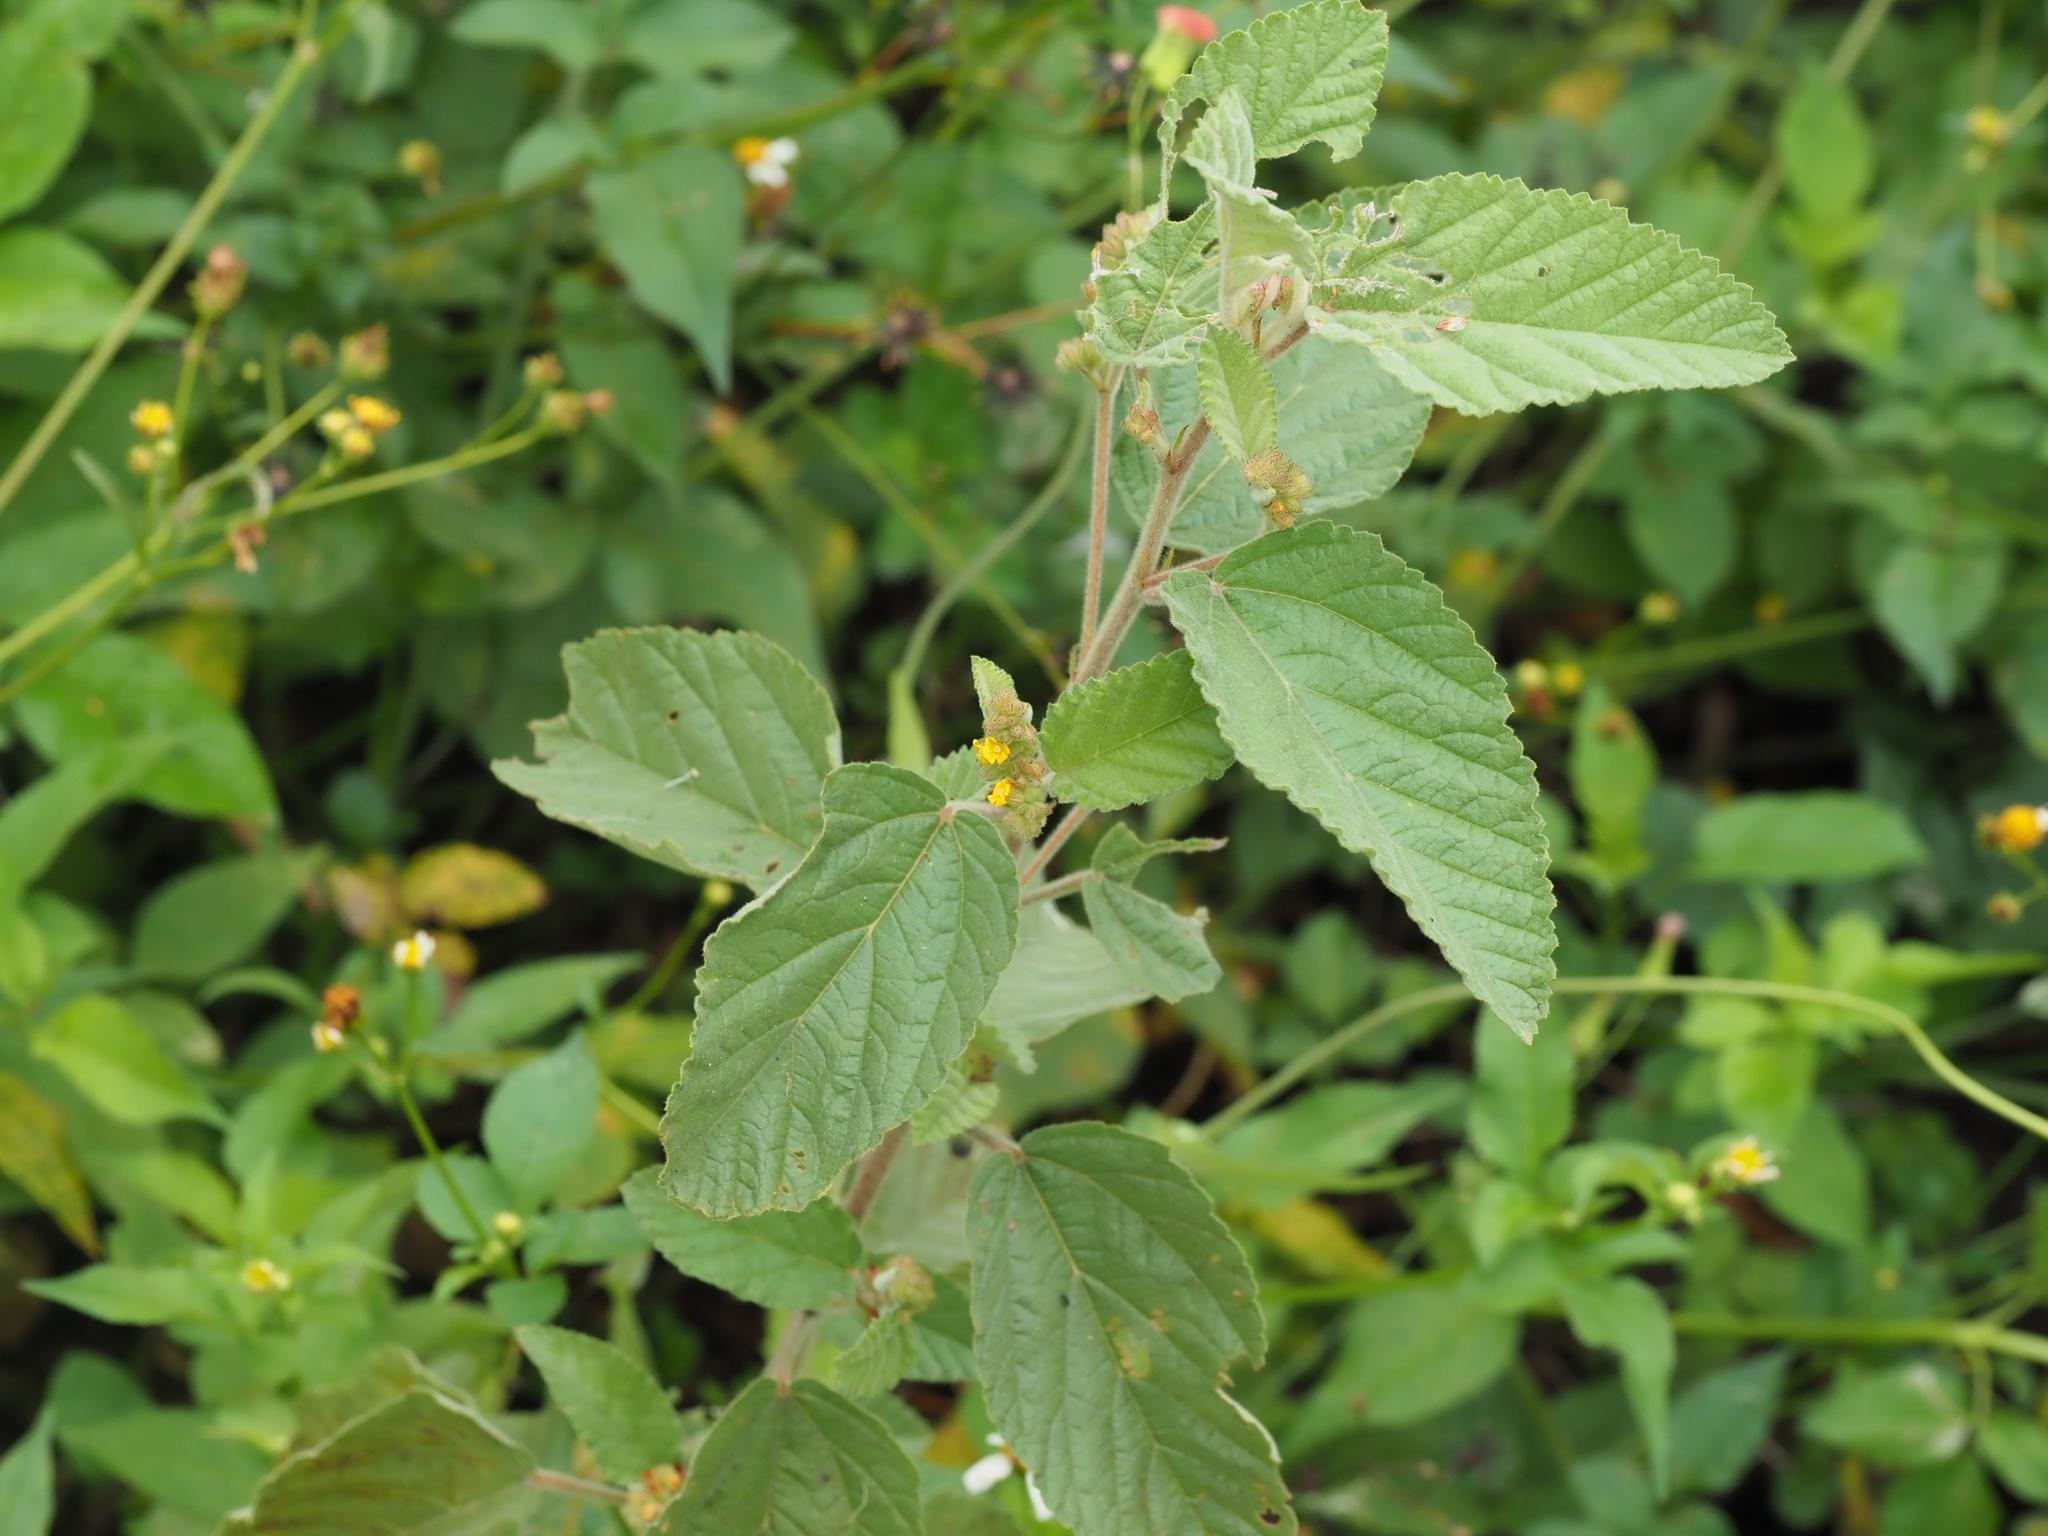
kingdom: Plantae
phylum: Tracheophyta
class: Magnoliopsida
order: Malvales
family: Malvaceae
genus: Waltheria
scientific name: Waltheria indica
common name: Leather-coat
